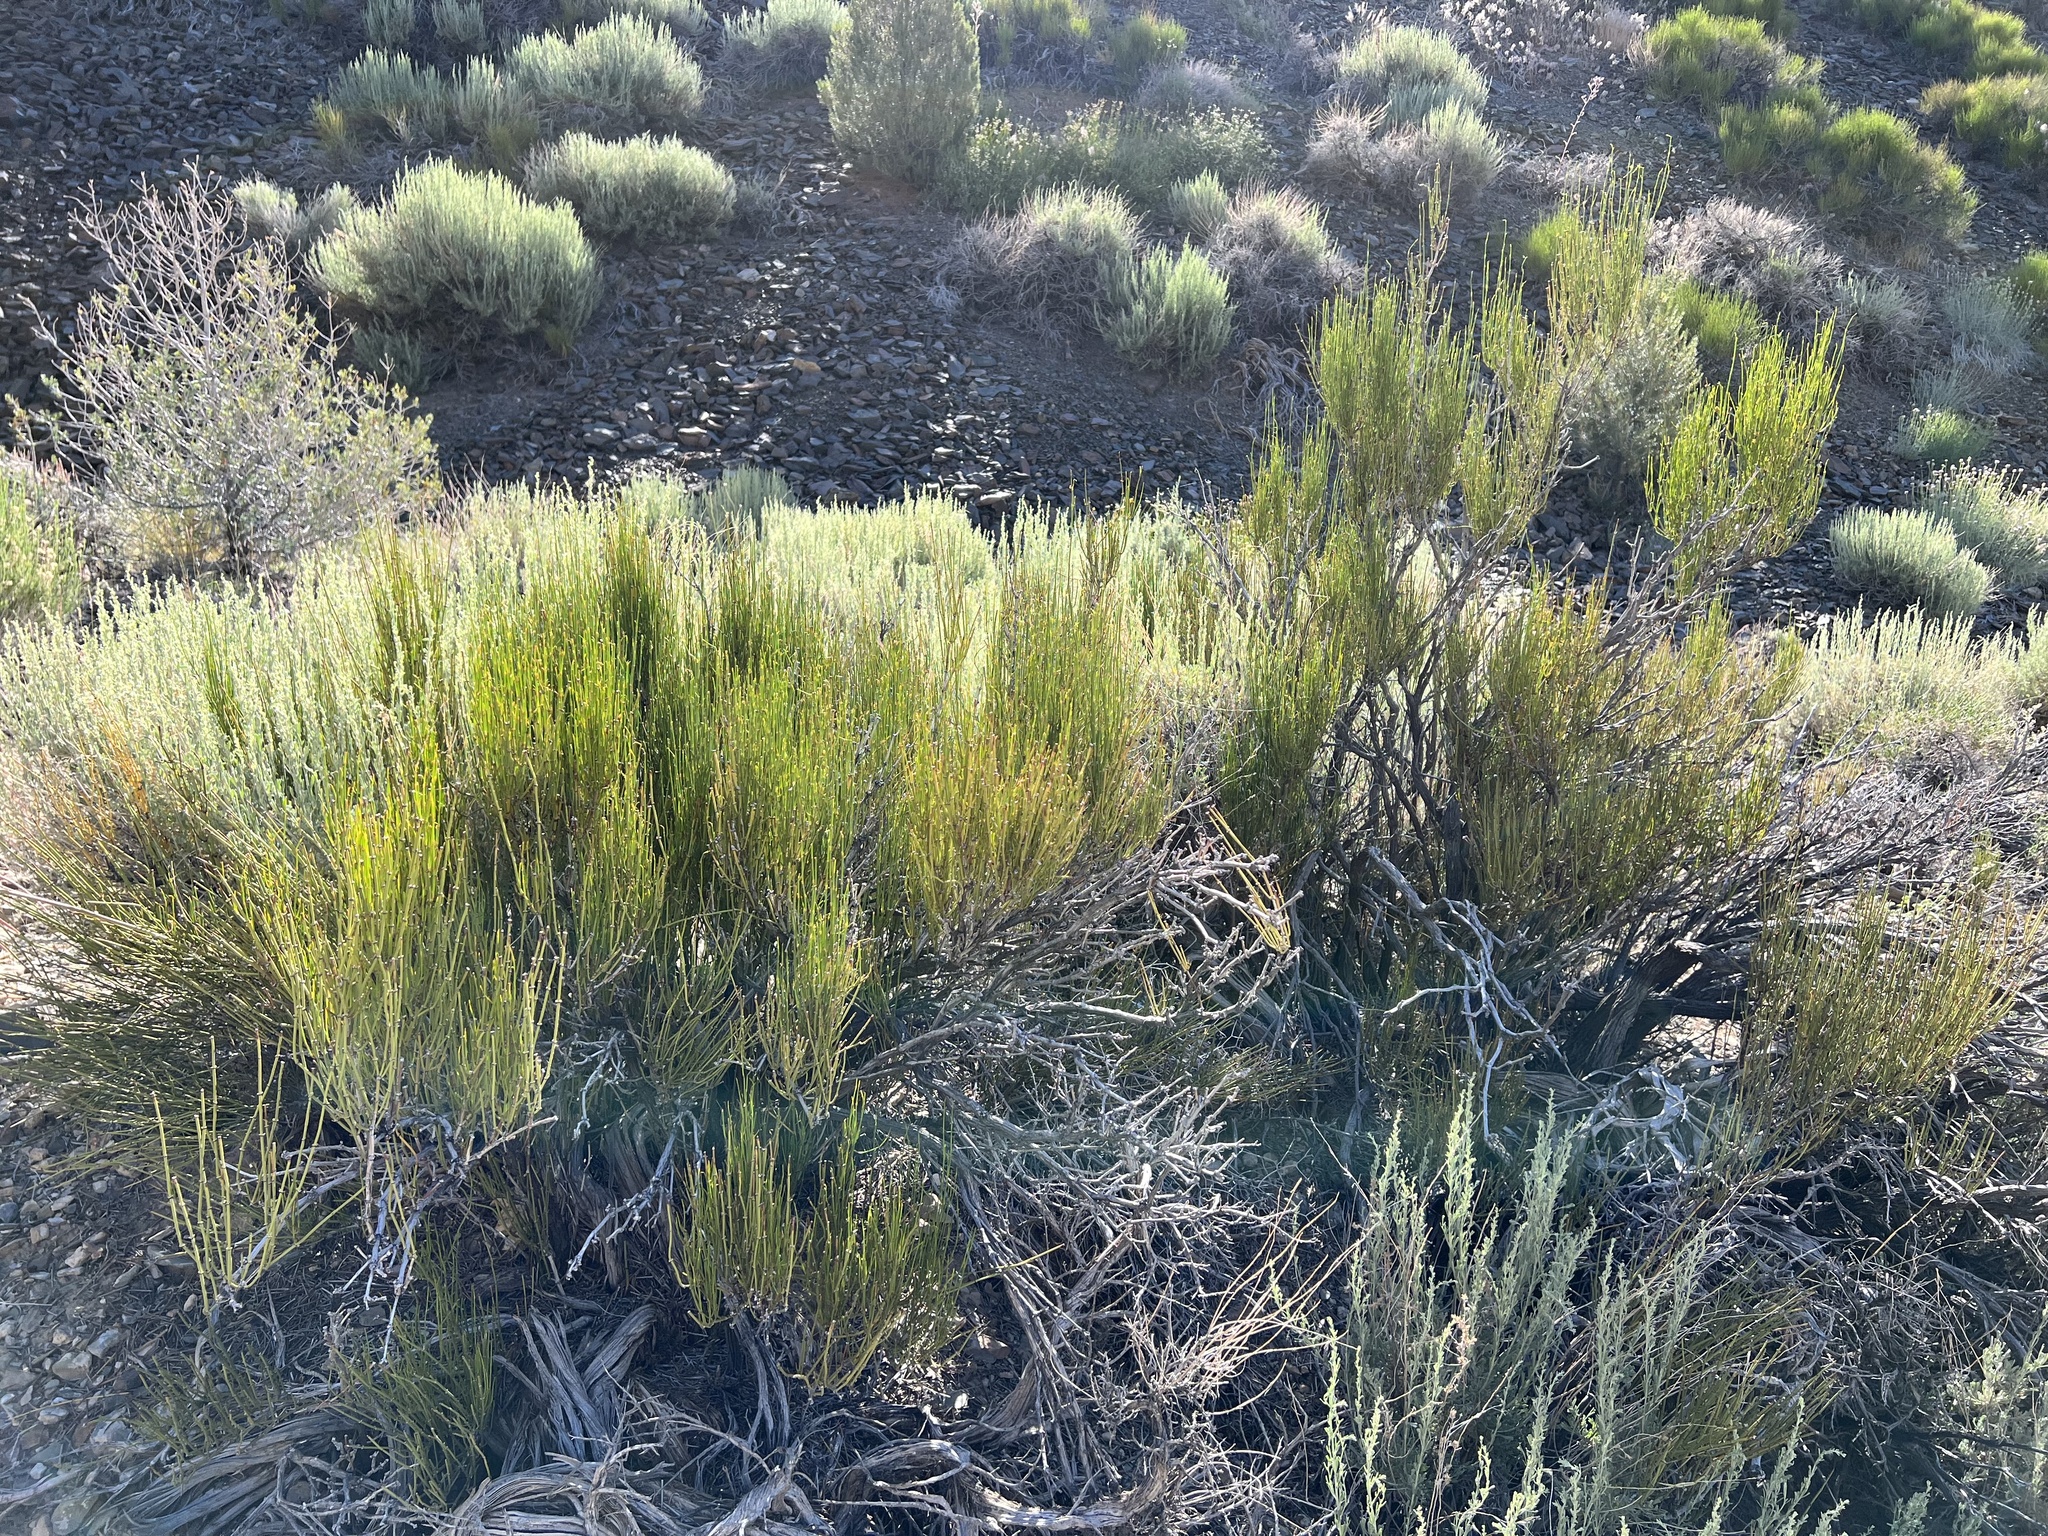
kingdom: Plantae
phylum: Tracheophyta
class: Gnetopsida
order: Ephedrales
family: Ephedraceae
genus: Ephedra
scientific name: Ephedra viridis
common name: Green ephedra
